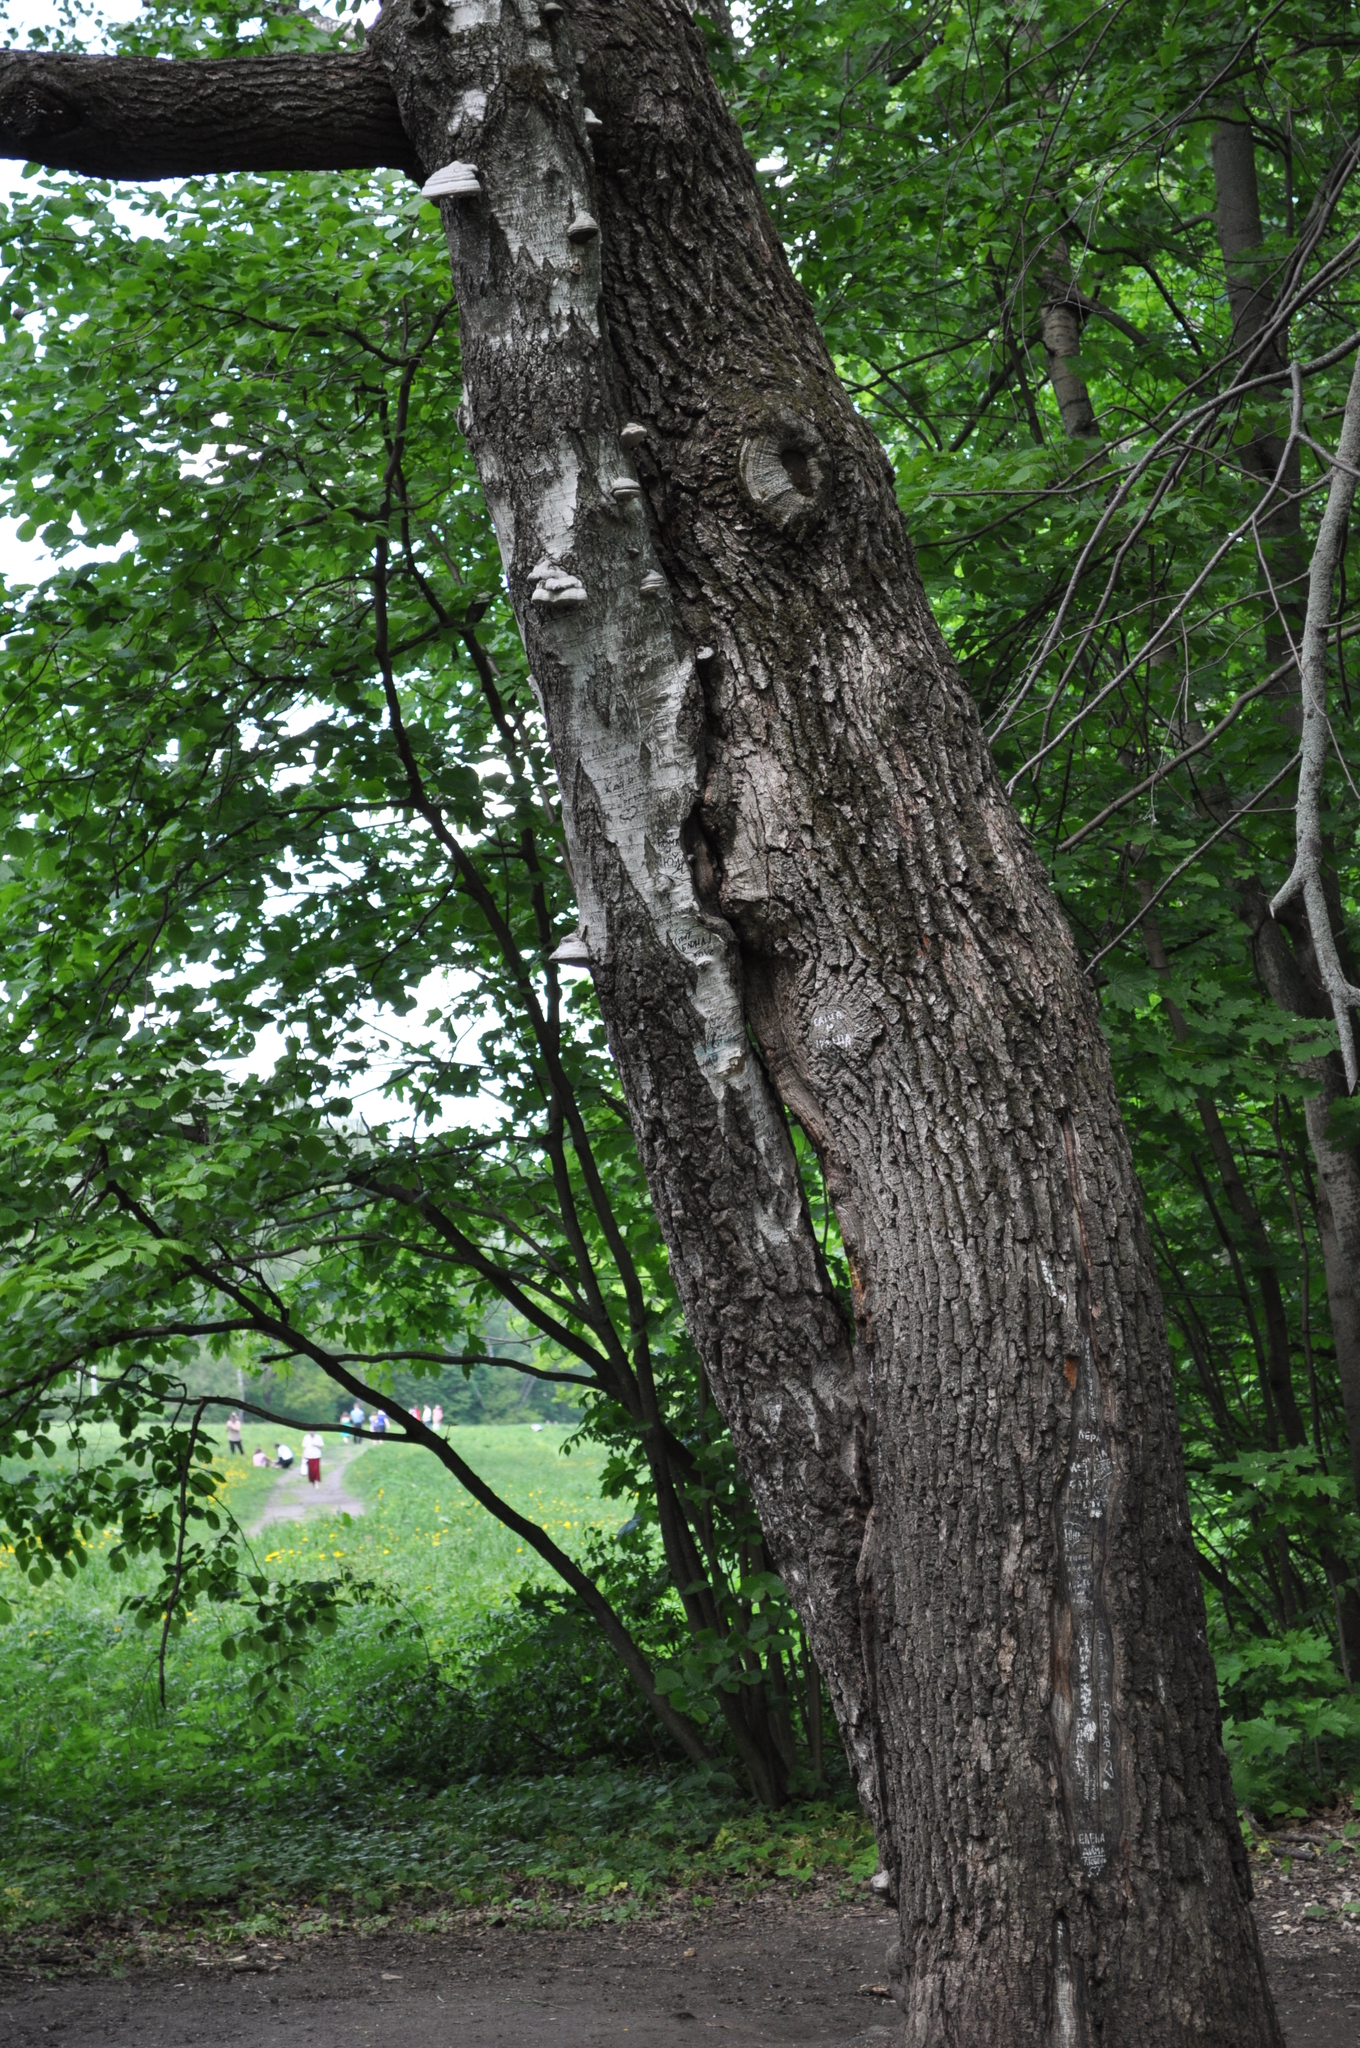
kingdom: Plantae
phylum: Tracheophyta
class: Magnoliopsida
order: Fagales
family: Fagaceae
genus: Quercus
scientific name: Quercus robur
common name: Pedunculate oak
